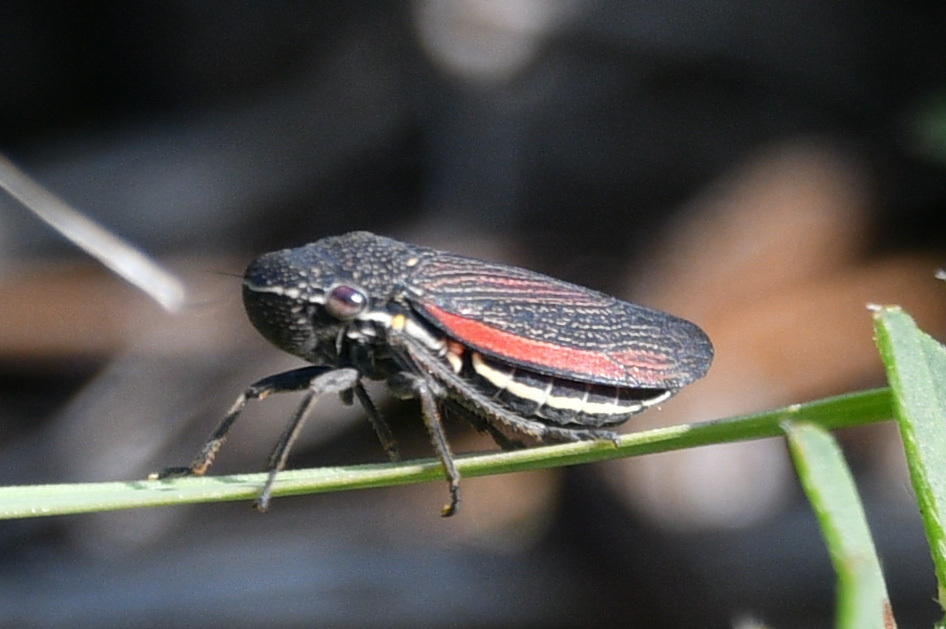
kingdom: Animalia
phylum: Arthropoda
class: Insecta
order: Hemiptera
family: Cicadellidae
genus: Cuerna
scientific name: Cuerna striata
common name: Striped leafhopper
